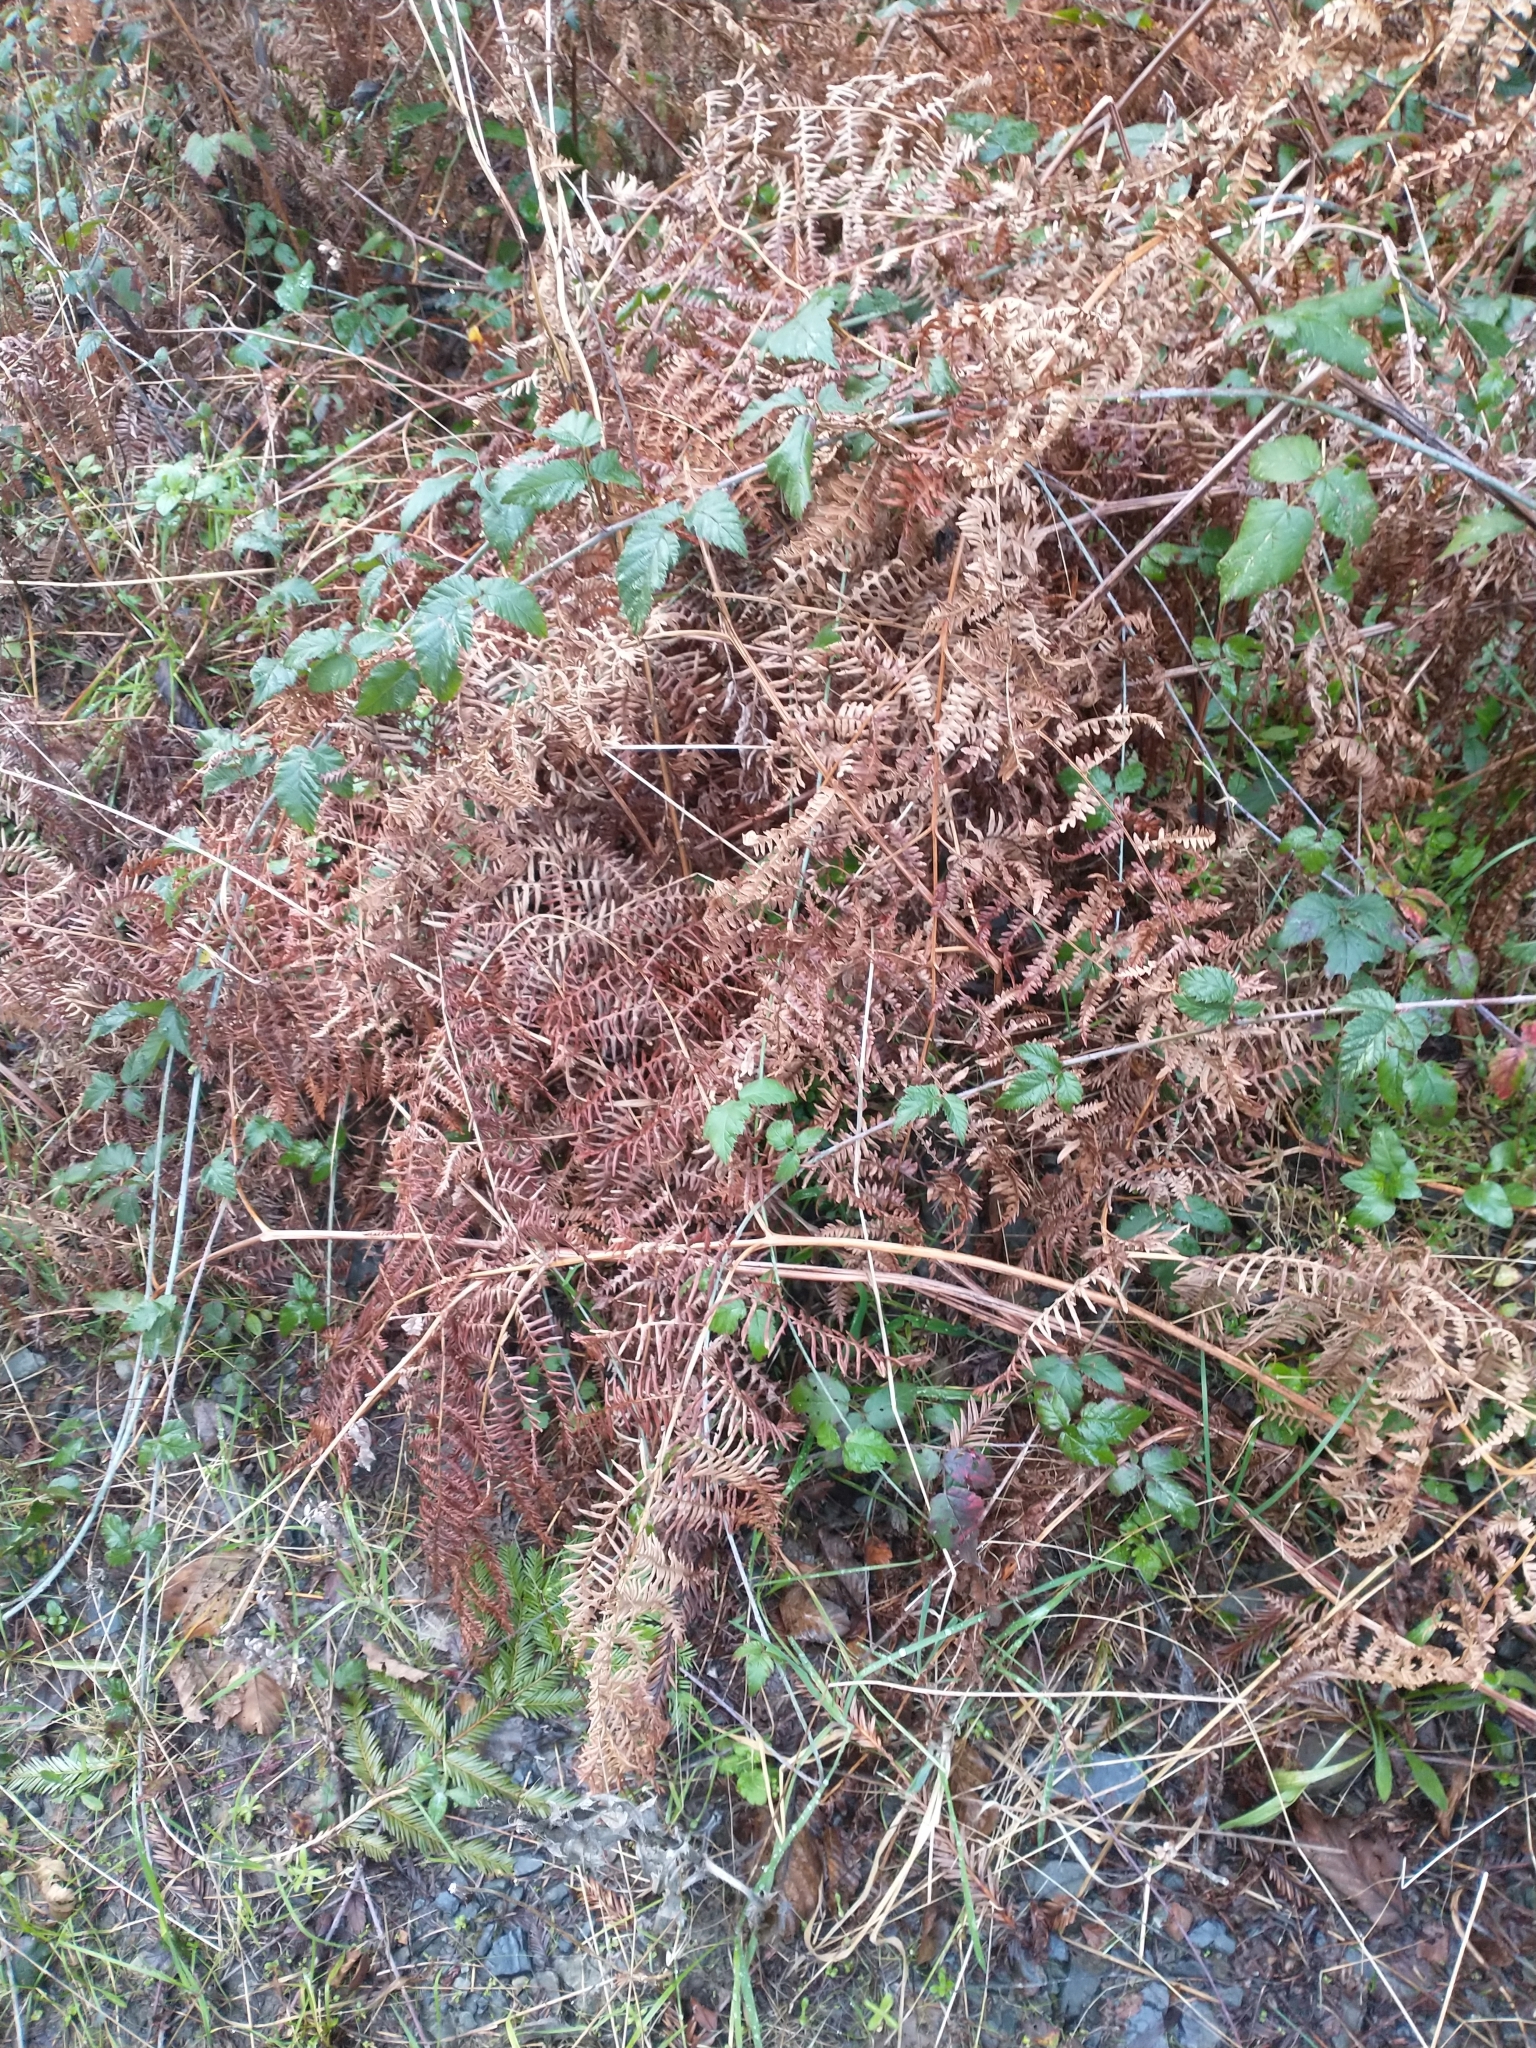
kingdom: Plantae
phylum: Tracheophyta
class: Polypodiopsida
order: Polypodiales
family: Dennstaedtiaceae
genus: Pteridium
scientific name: Pteridium aquilinum
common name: Bracken
